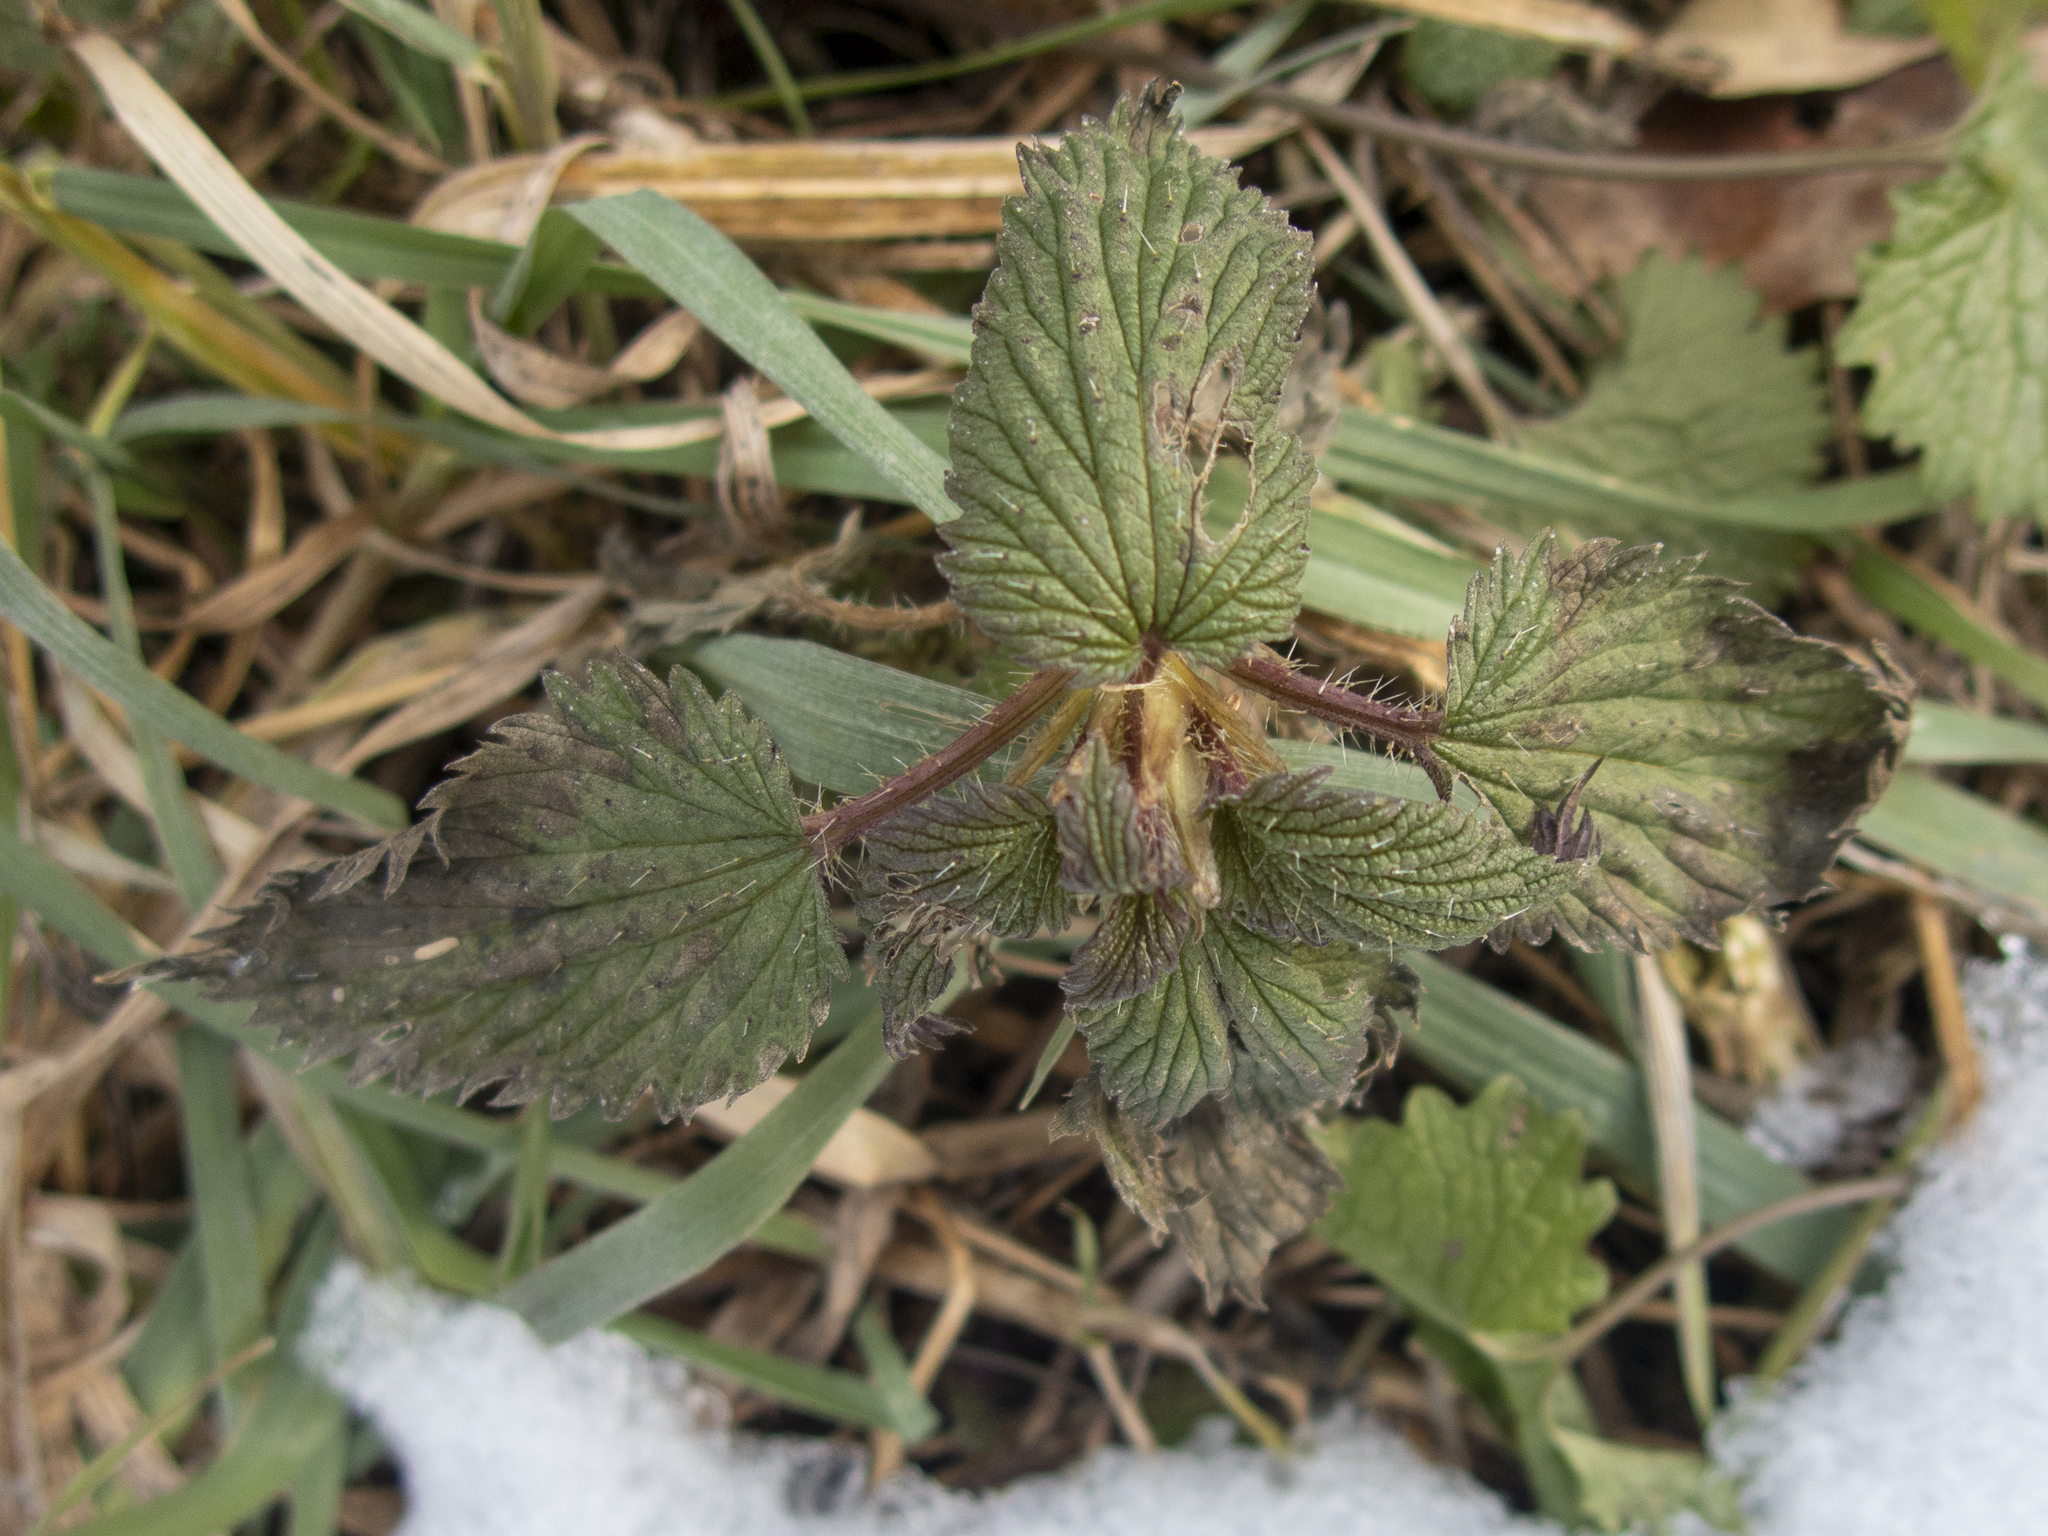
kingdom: Plantae
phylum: Tracheophyta
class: Magnoliopsida
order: Rosales
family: Urticaceae
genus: Urtica
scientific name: Urtica dioica
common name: Common nettle
